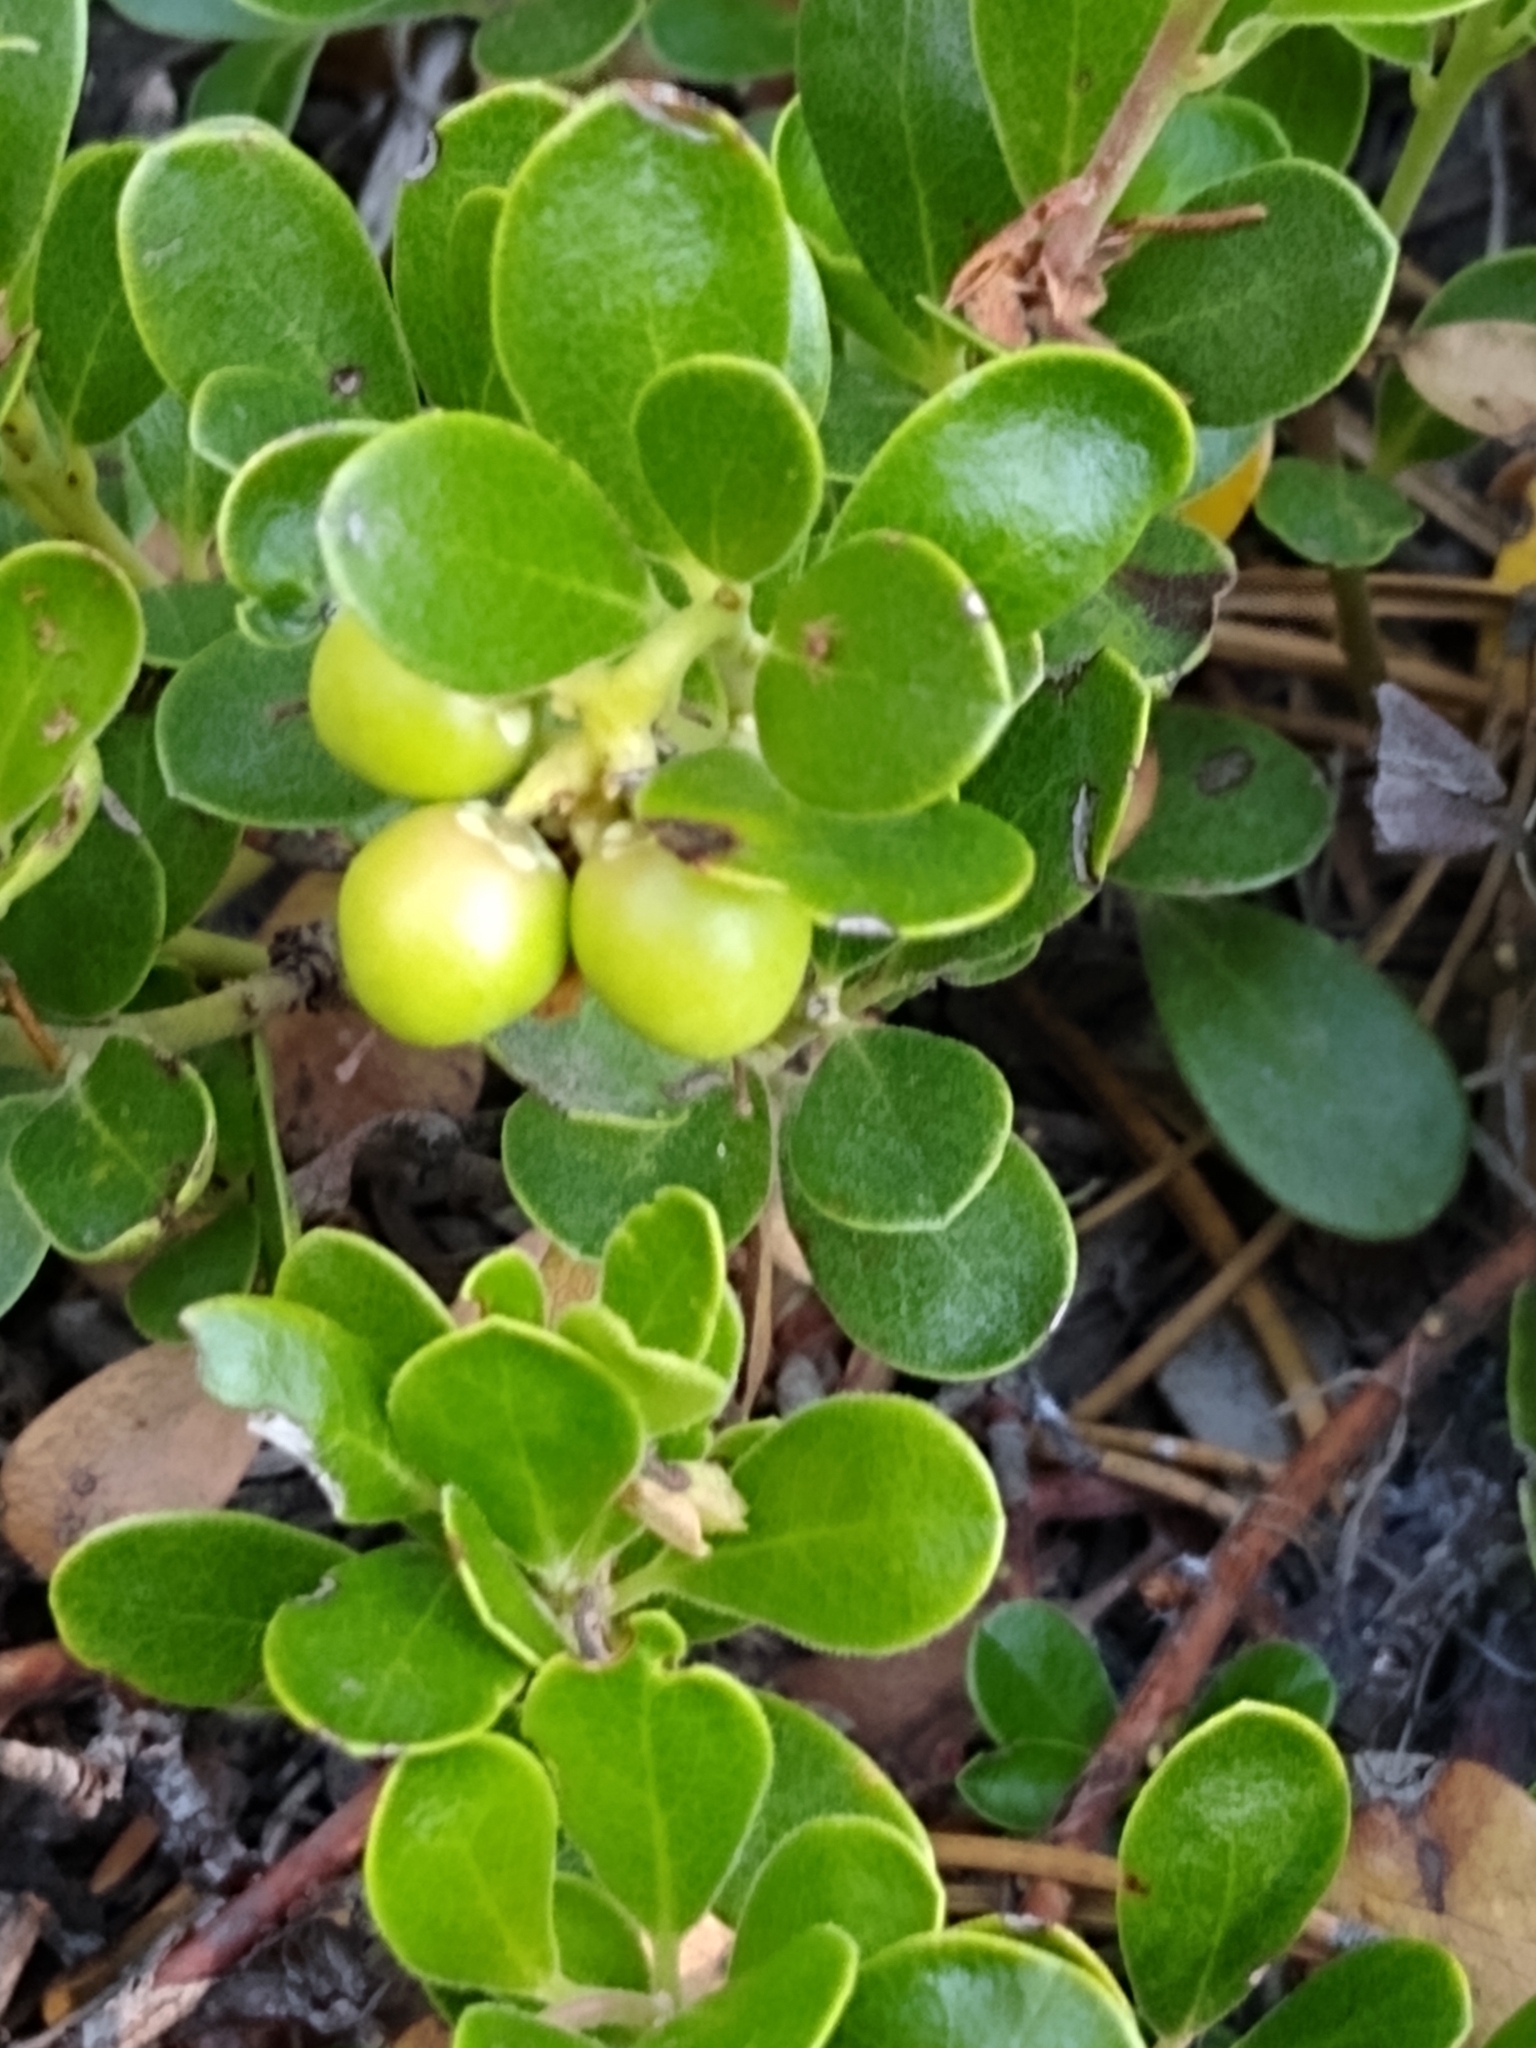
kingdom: Plantae
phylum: Tracheophyta
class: Magnoliopsida
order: Ericales
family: Ericaceae
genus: Arctostaphylos
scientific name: Arctostaphylos uva-ursi
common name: Bearberry
